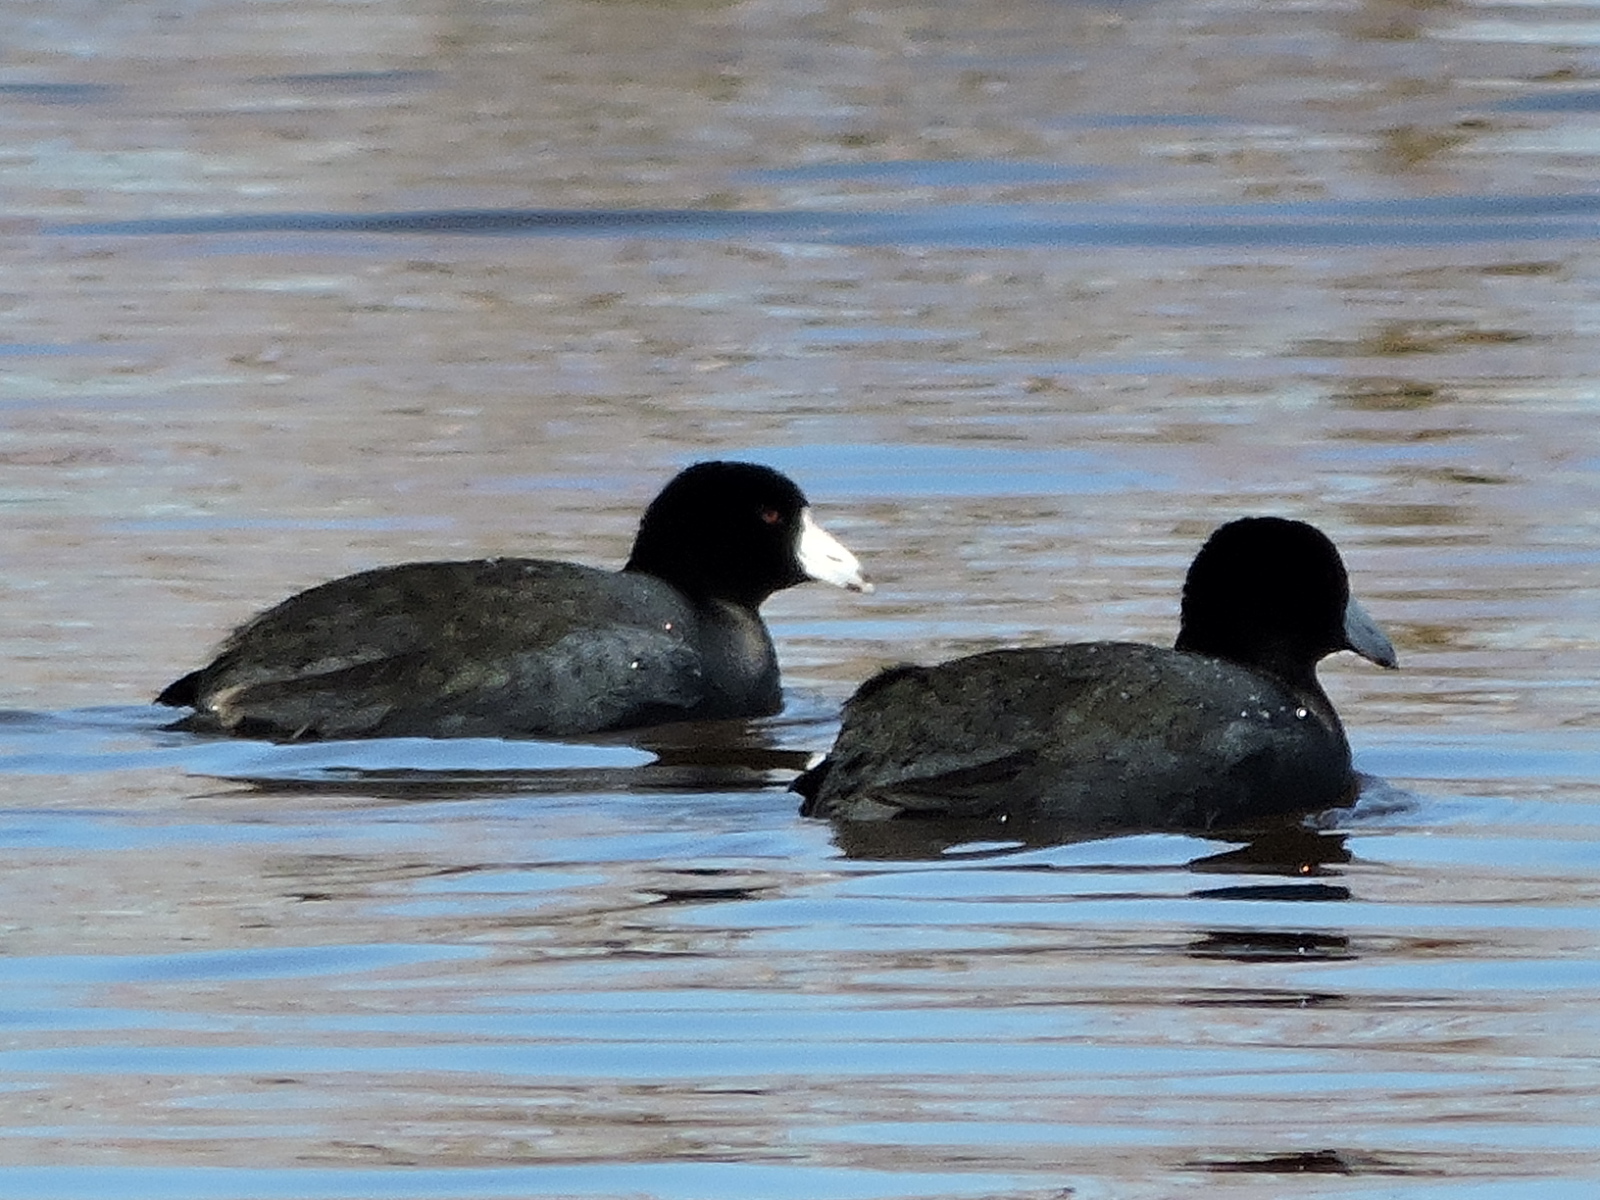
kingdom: Animalia
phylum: Chordata
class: Aves
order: Gruiformes
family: Rallidae
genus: Fulica
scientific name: Fulica americana
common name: American coot
